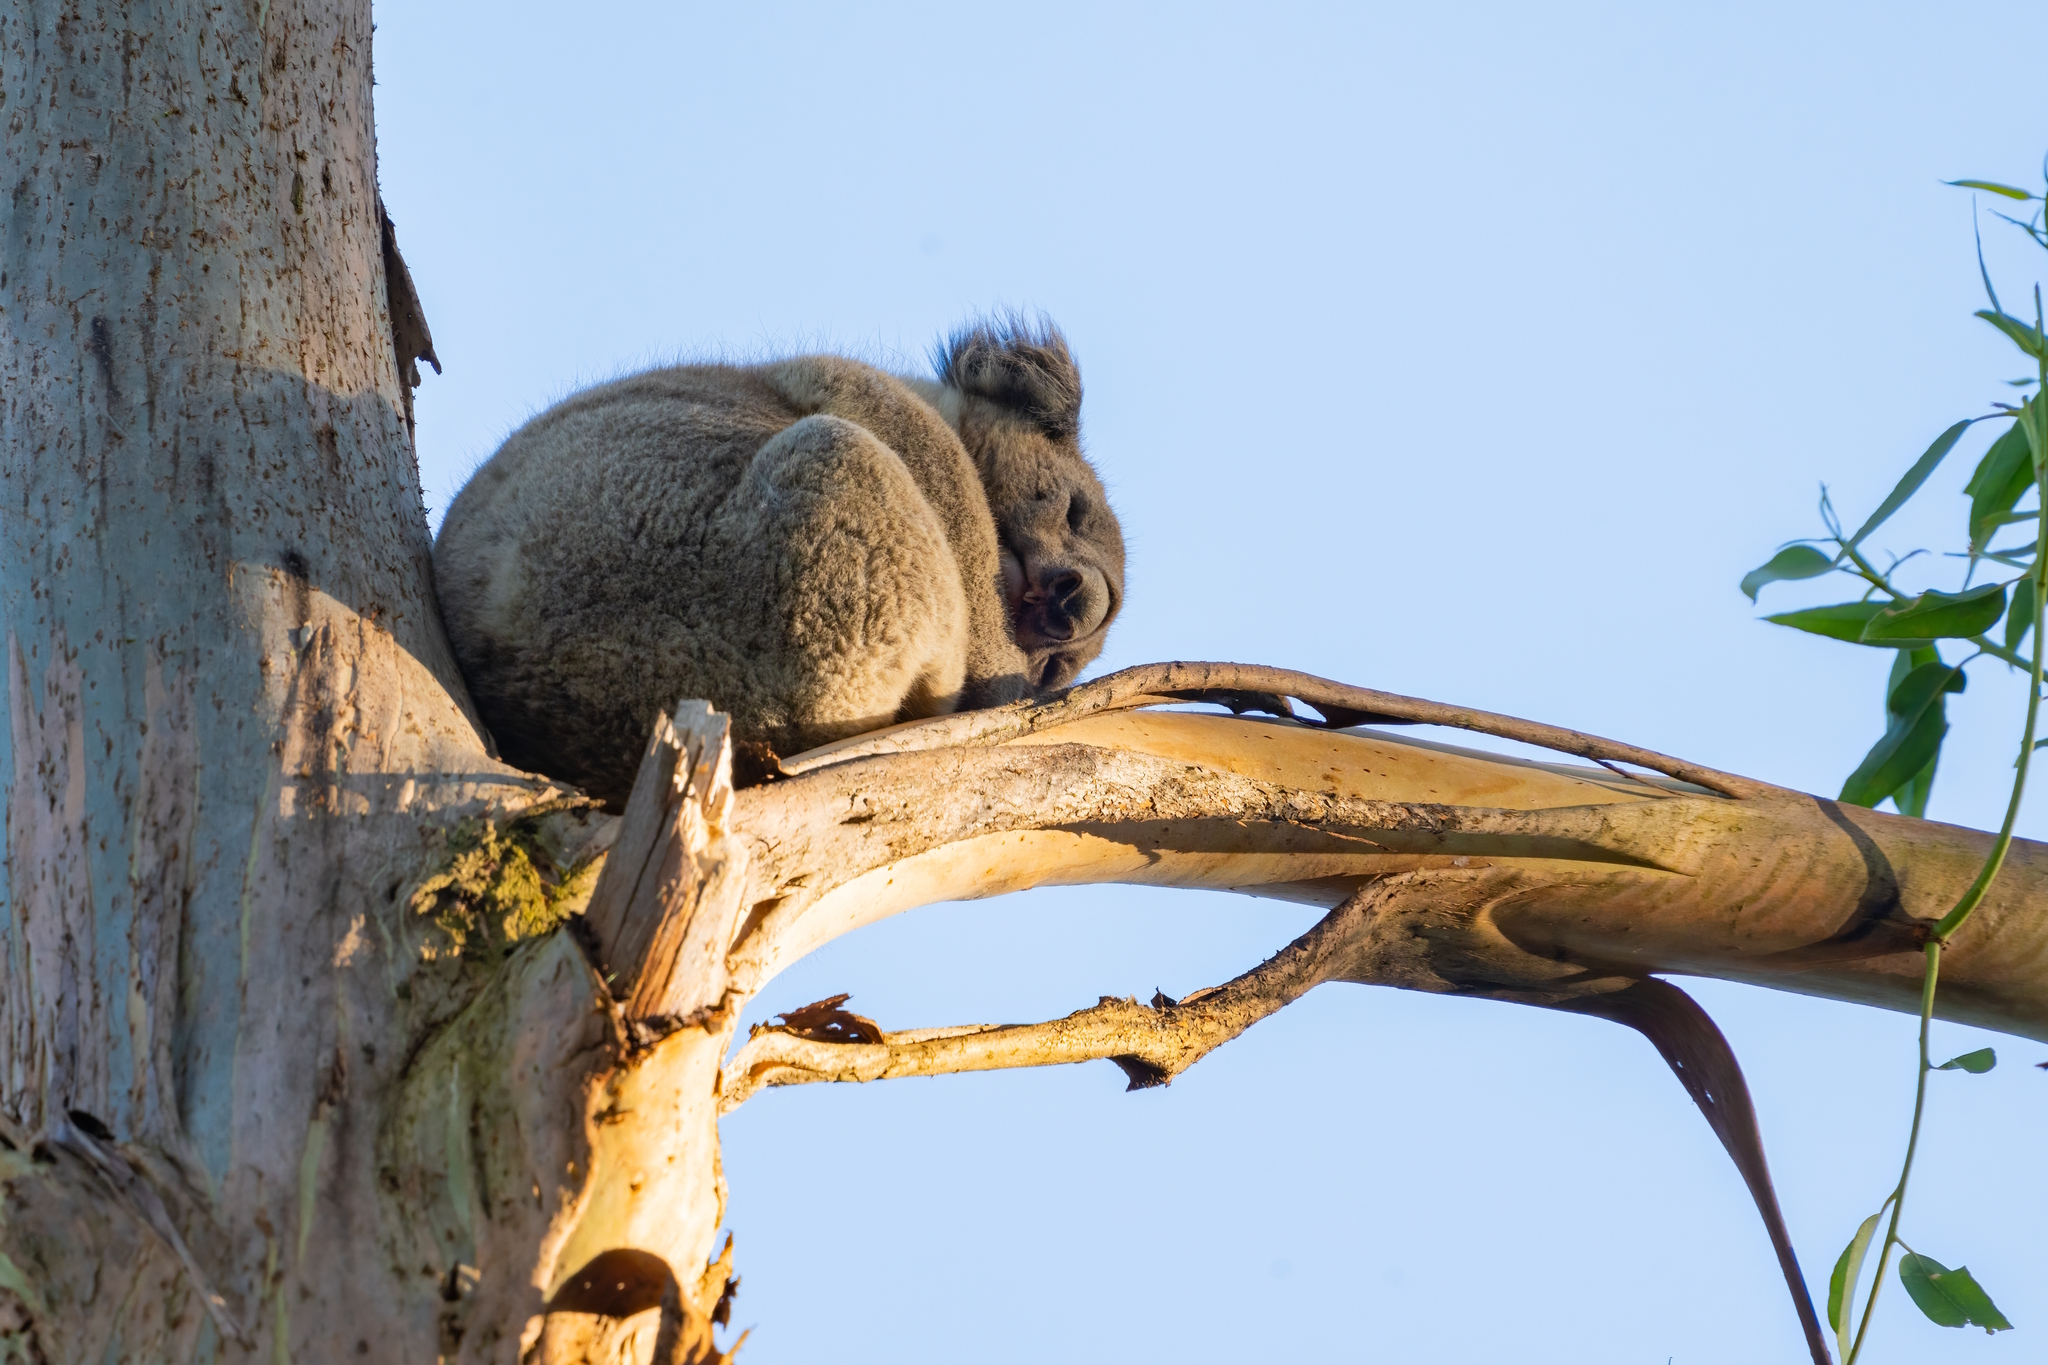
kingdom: Animalia
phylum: Chordata
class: Mammalia
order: Diprotodontia
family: Phascolarctidae
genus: Phascolarctos
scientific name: Phascolarctos cinereus
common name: Koala
